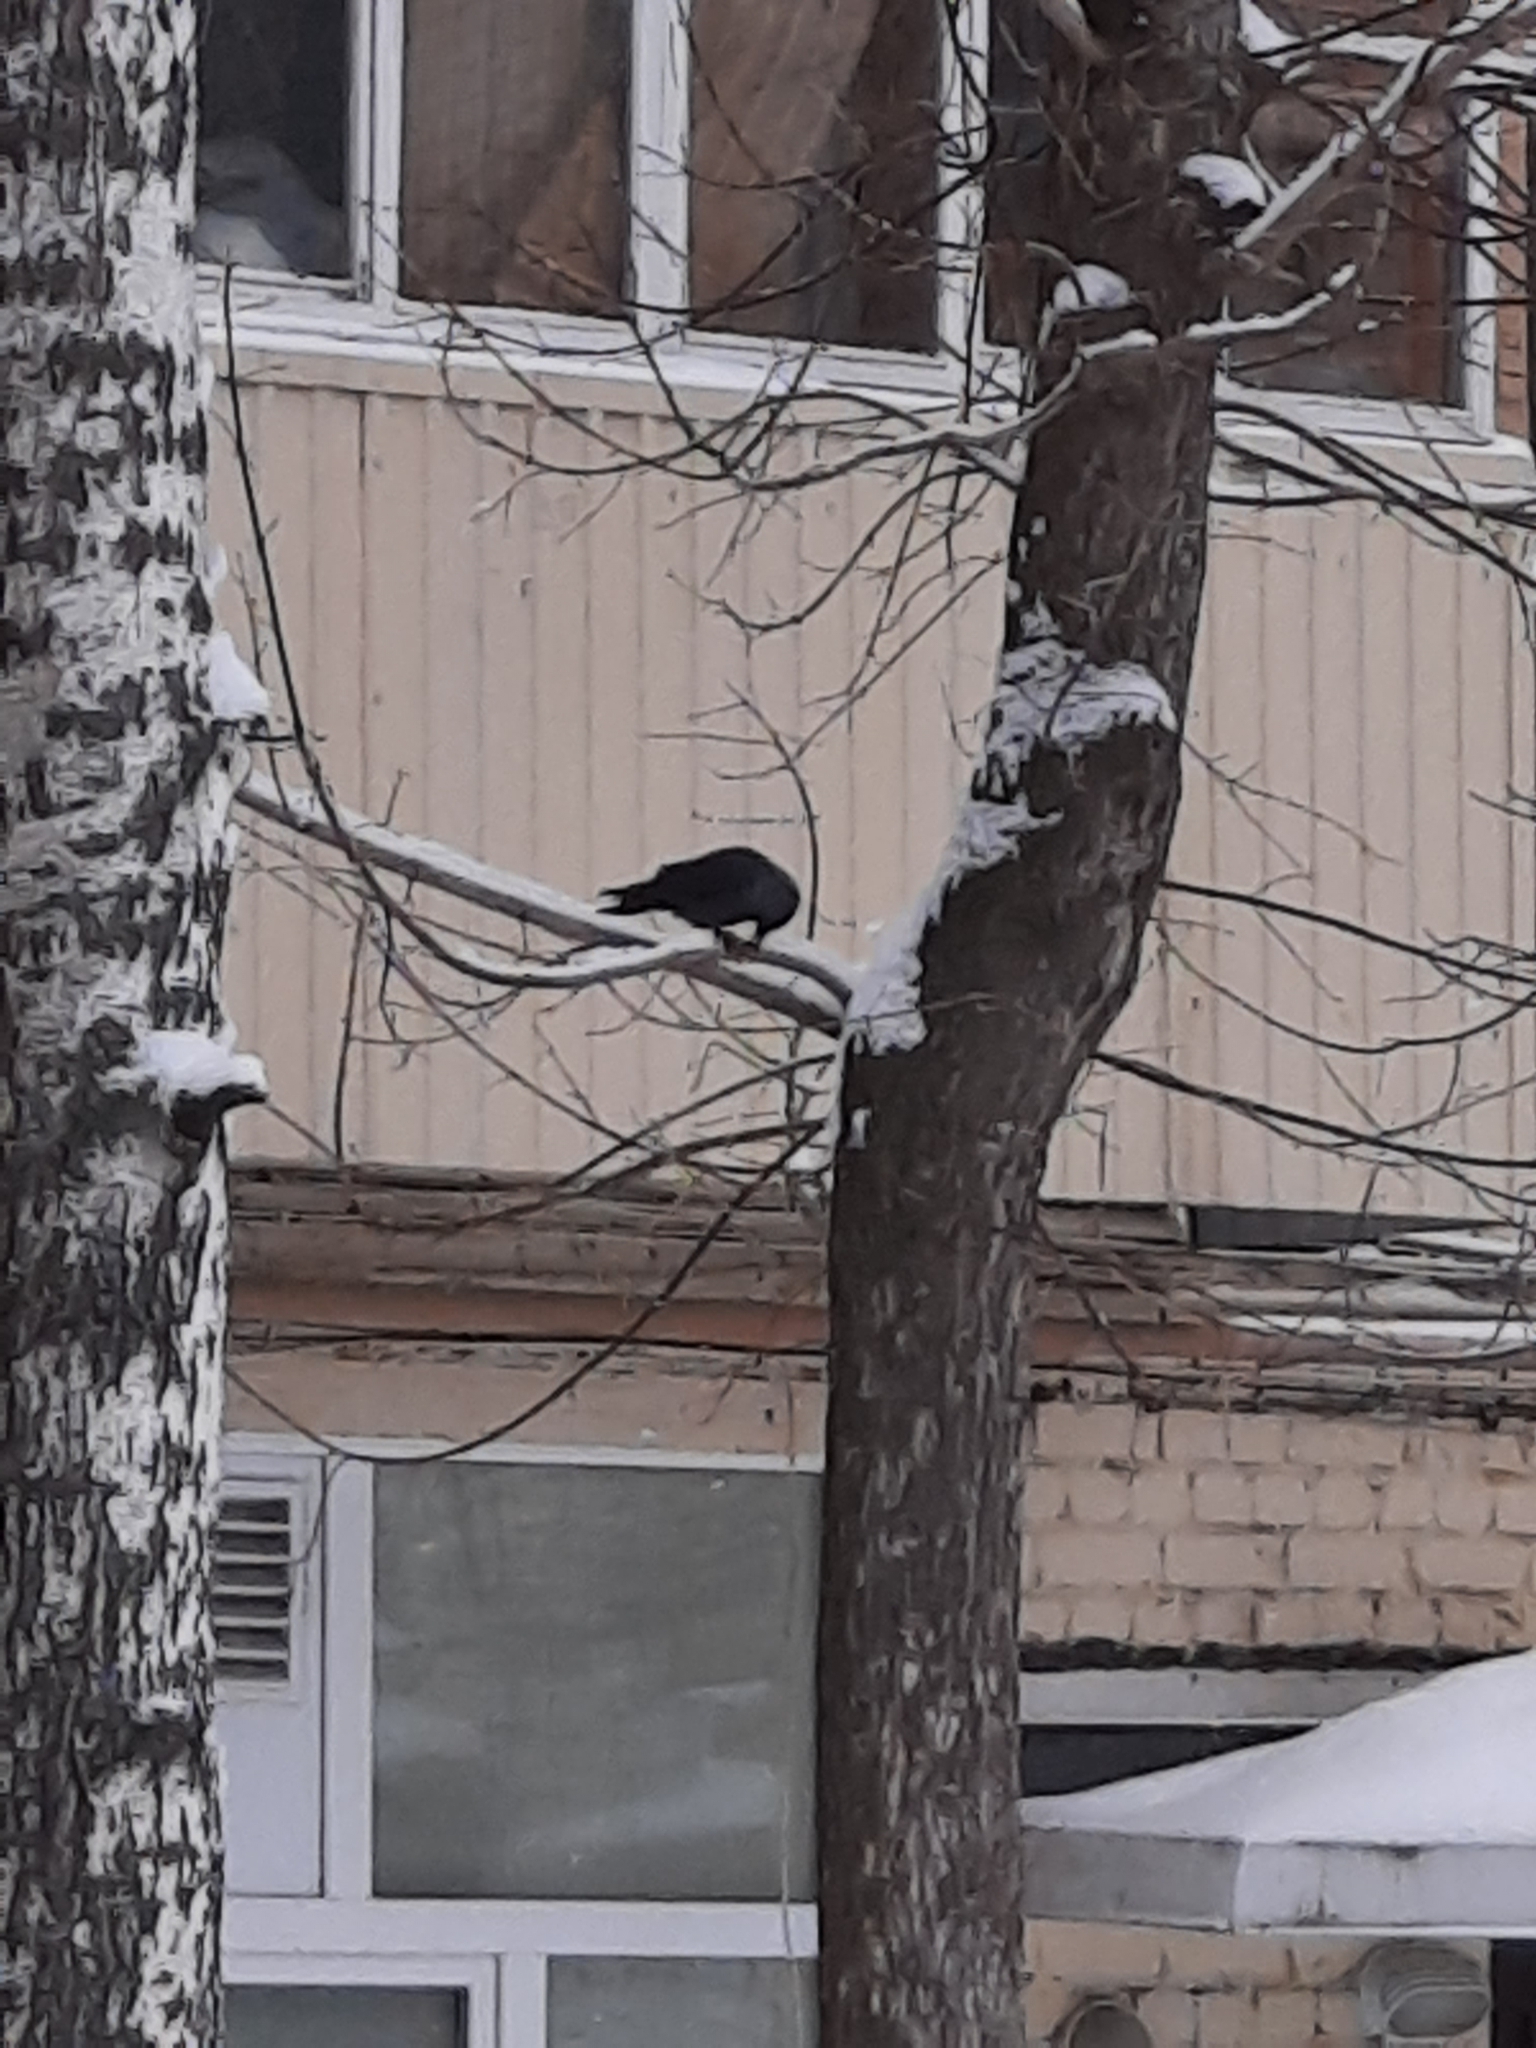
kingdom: Animalia
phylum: Chordata
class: Aves
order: Passeriformes
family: Corvidae
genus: Coloeus
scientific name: Coloeus monedula
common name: Western jackdaw
